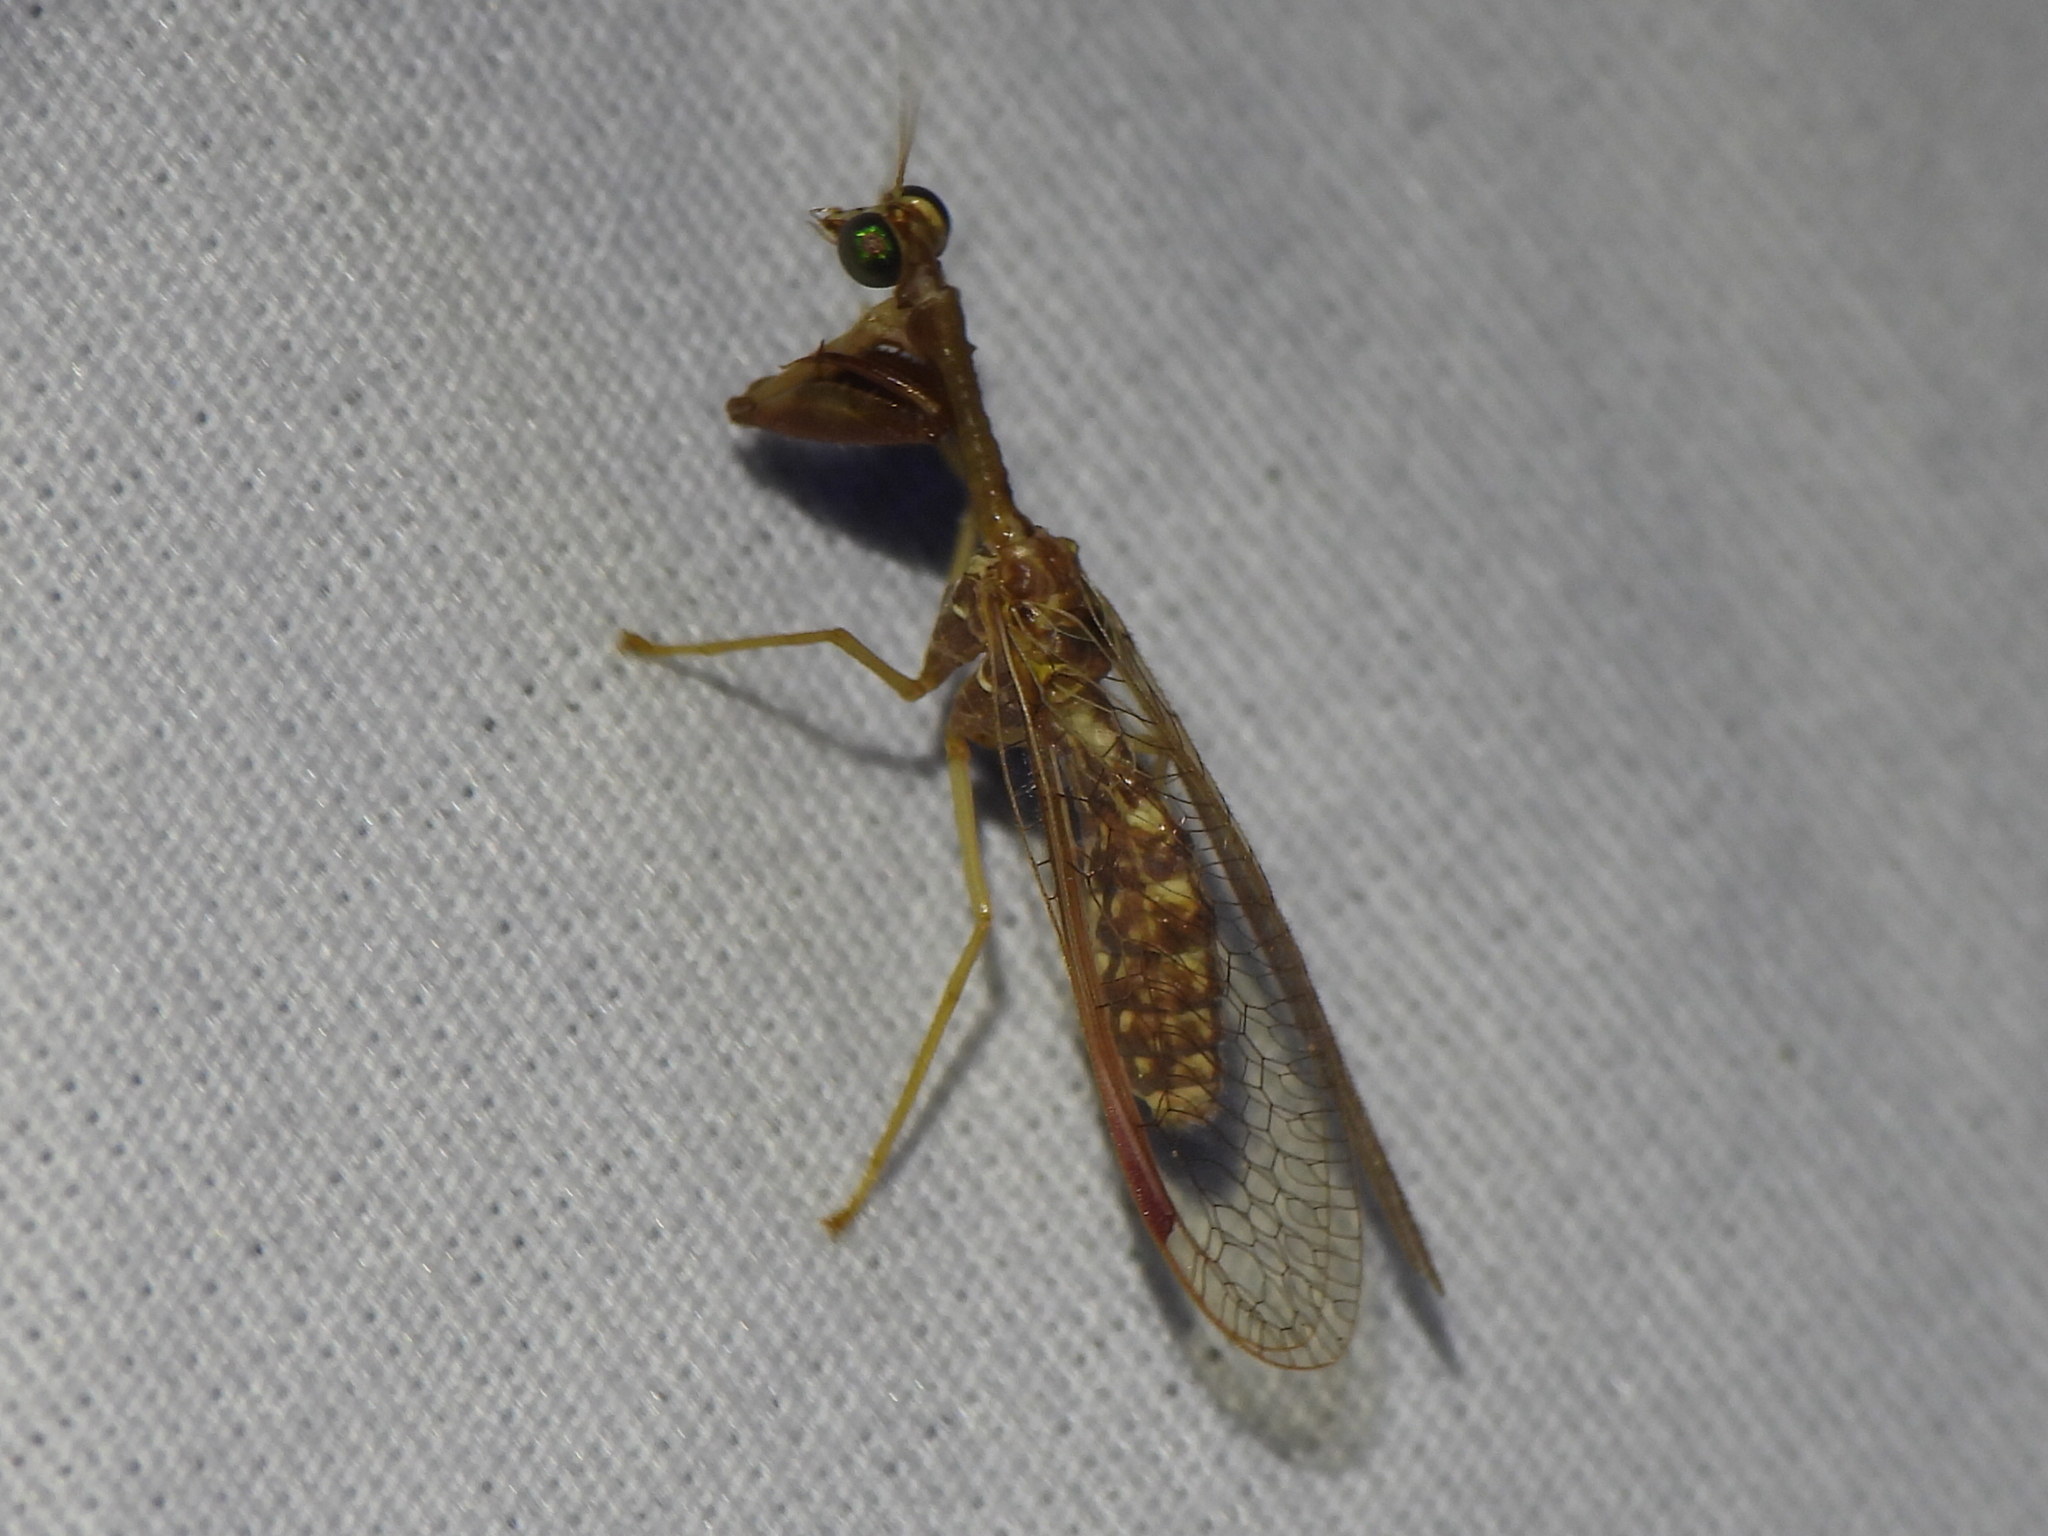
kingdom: Animalia
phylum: Arthropoda
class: Insecta
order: Neuroptera
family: Mantispidae
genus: Dicromantispa
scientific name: Dicromantispa sayi
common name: Say's mantidfly
